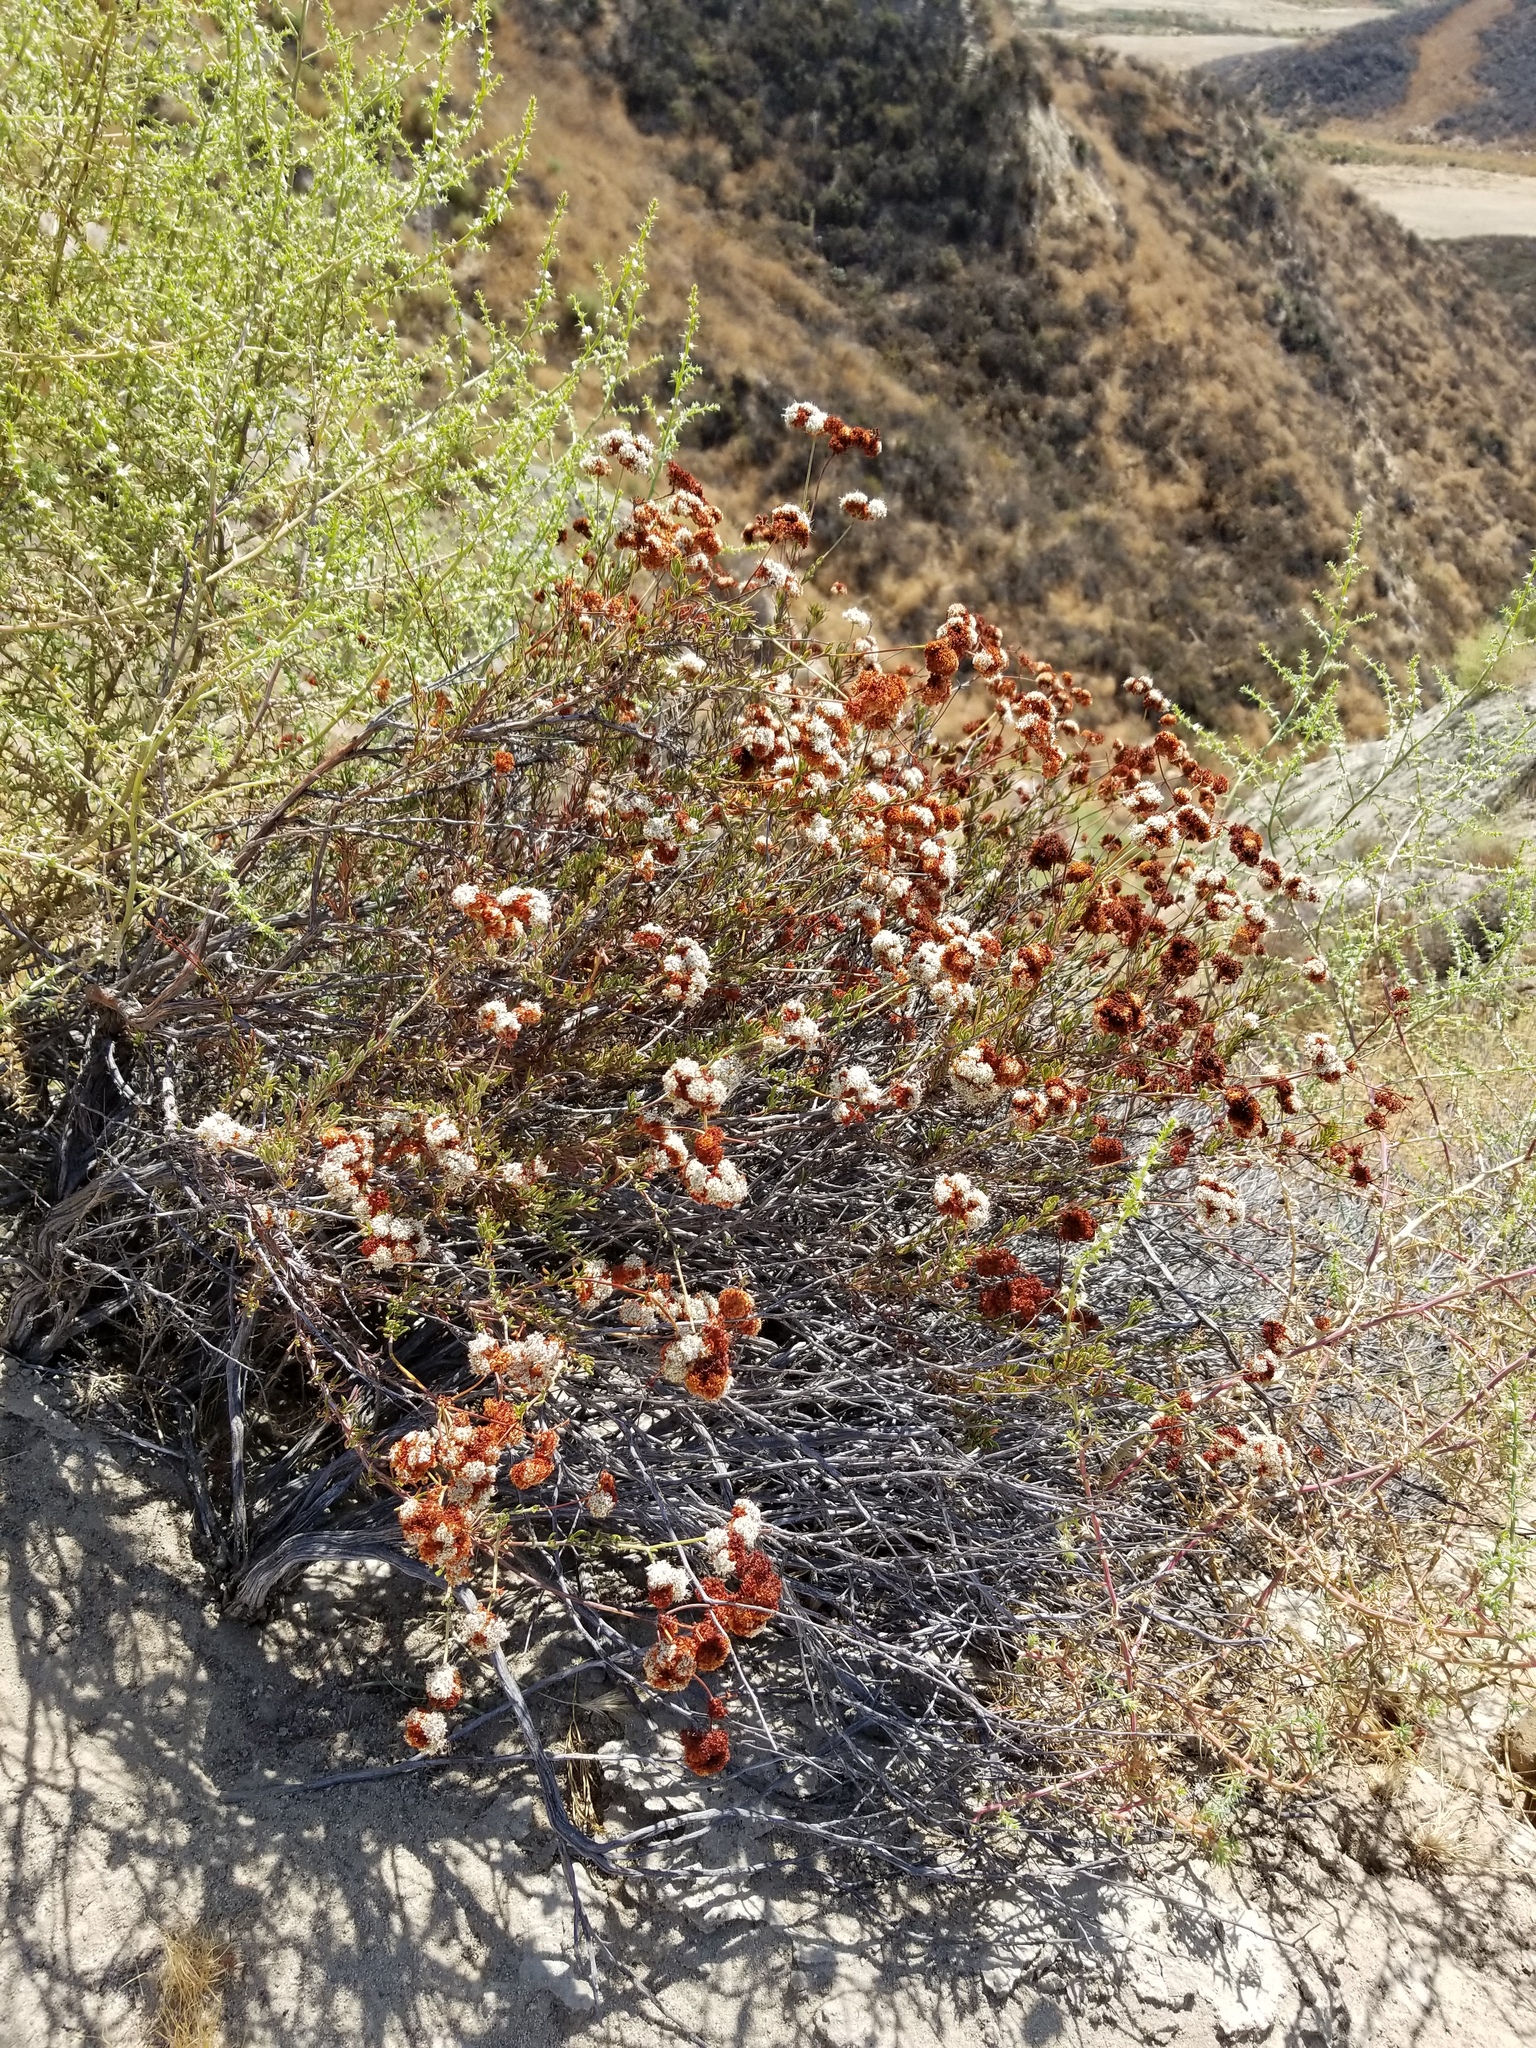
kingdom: Plantae
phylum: Tracheophyta
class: Magnoliopsida
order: Caryophyllales
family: Polygonaceae
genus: Eriogonum
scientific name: Eriogonum fasciculatum
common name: California wild buckwheat
